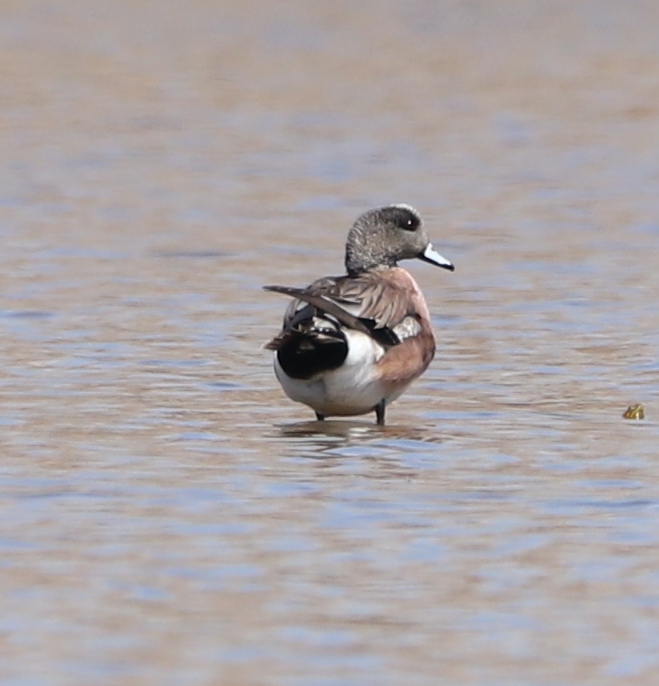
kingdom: Animalia
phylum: Chordata
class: Aves
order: Anseriformes
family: Anatidae
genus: Mareca
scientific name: Mareca americana
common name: American wigeon
